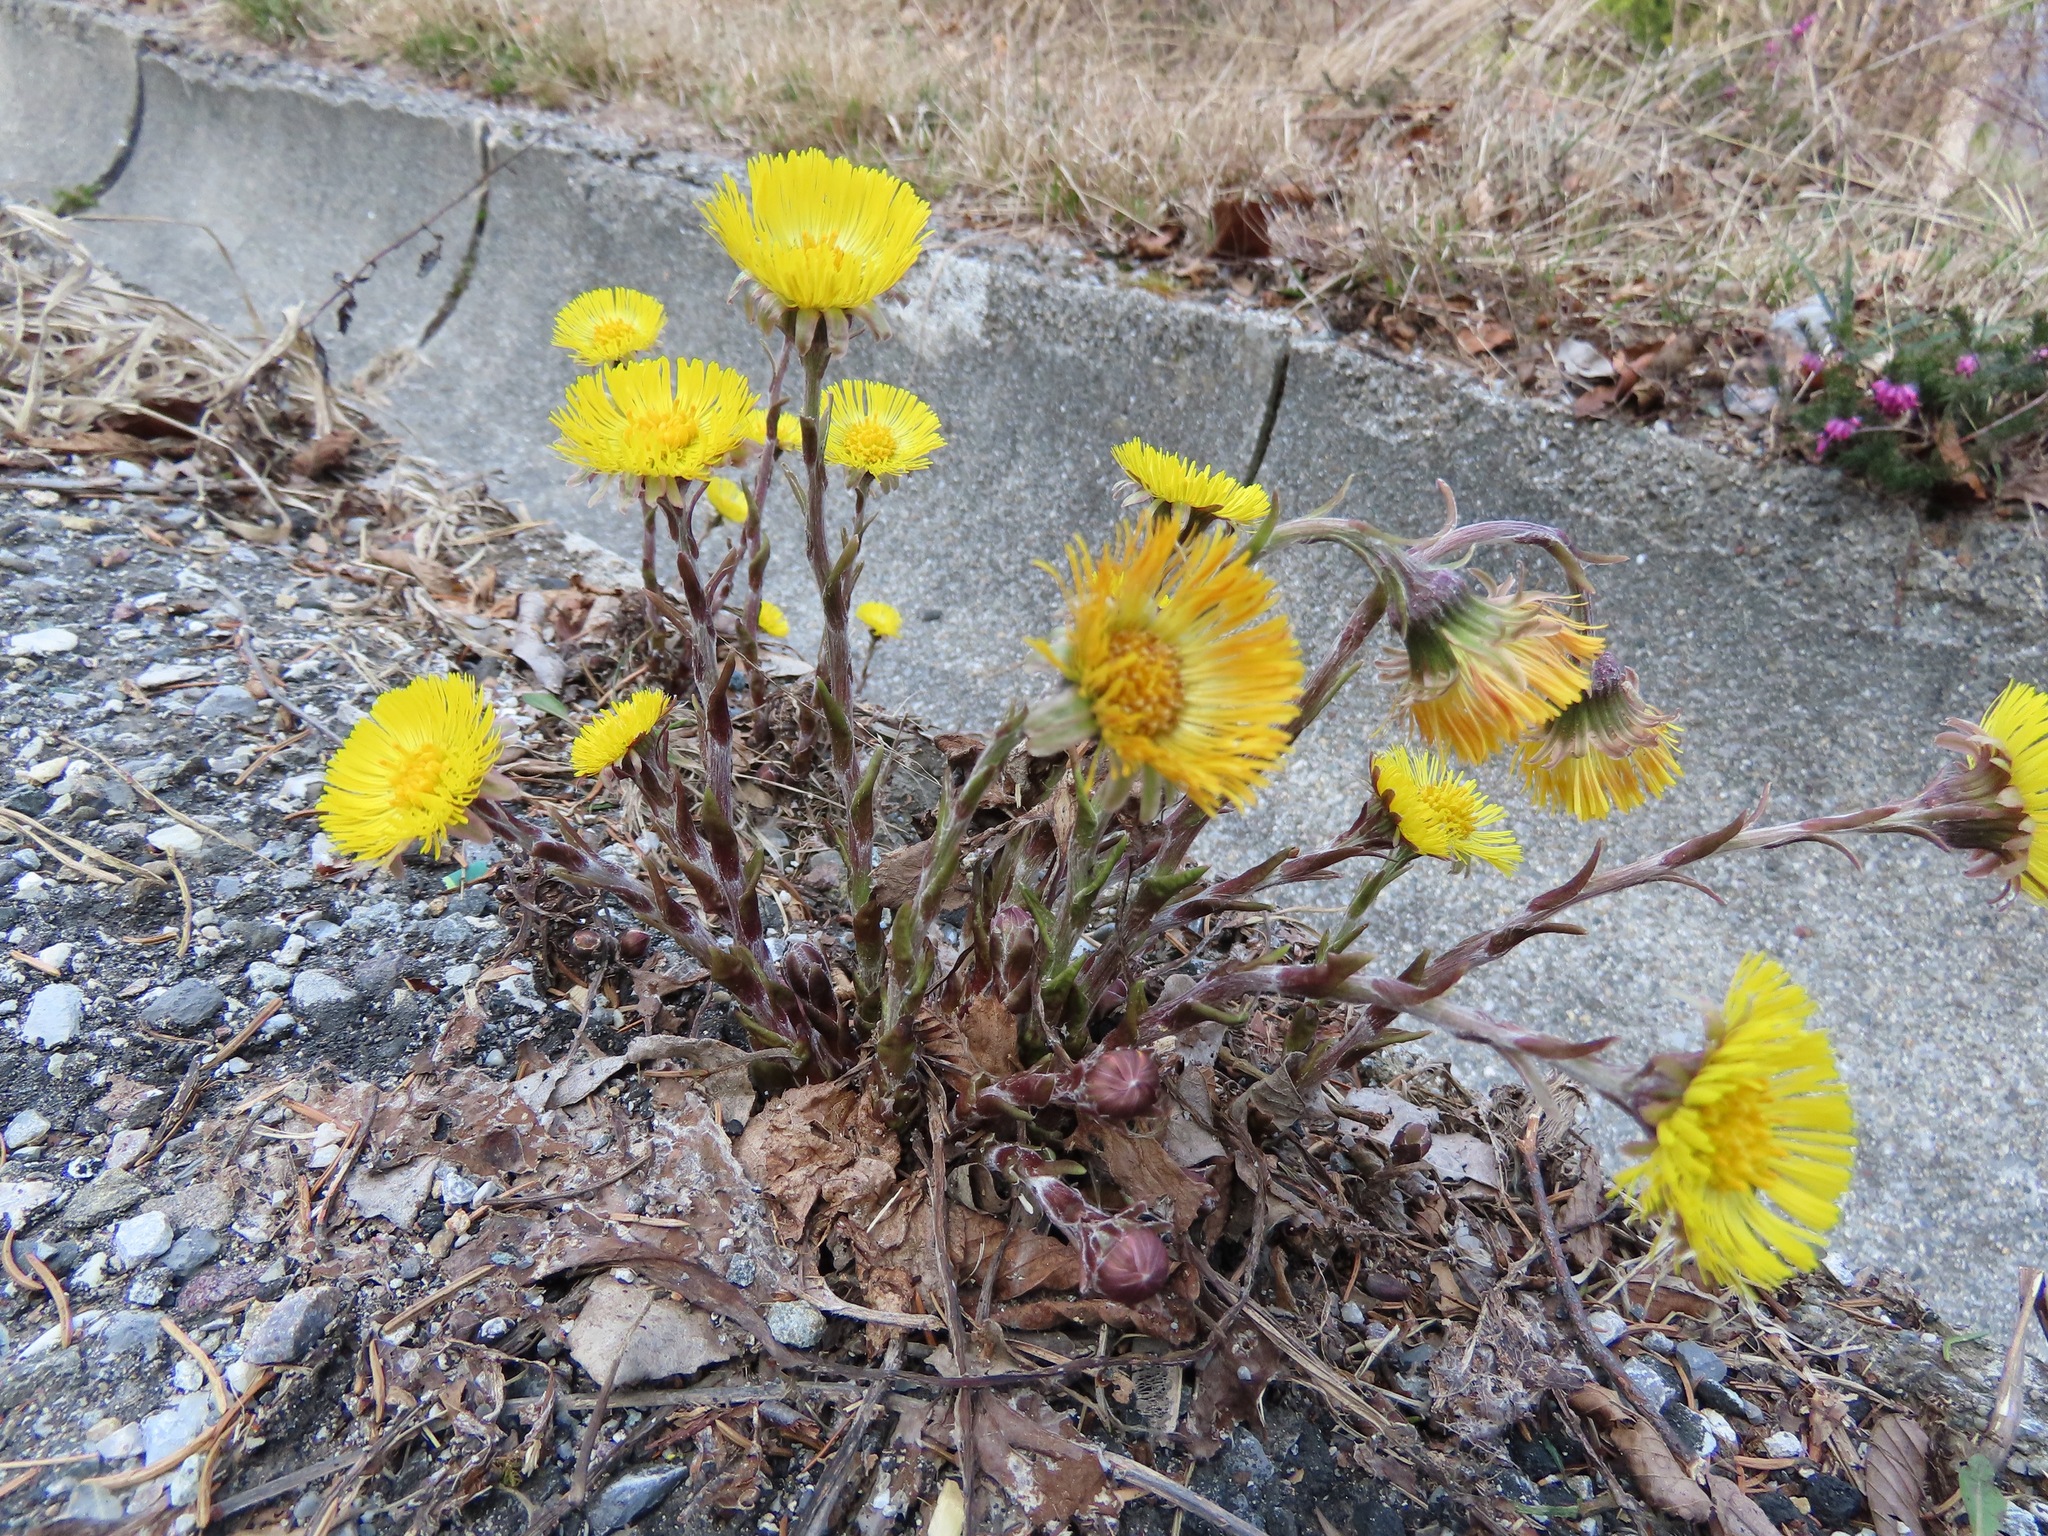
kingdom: Plantae
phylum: Tracheophyta
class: Magnoliopsida
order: Asterales
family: Asteraceae
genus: Tussilago
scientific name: Tussilago farfara
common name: Coltsfoot
